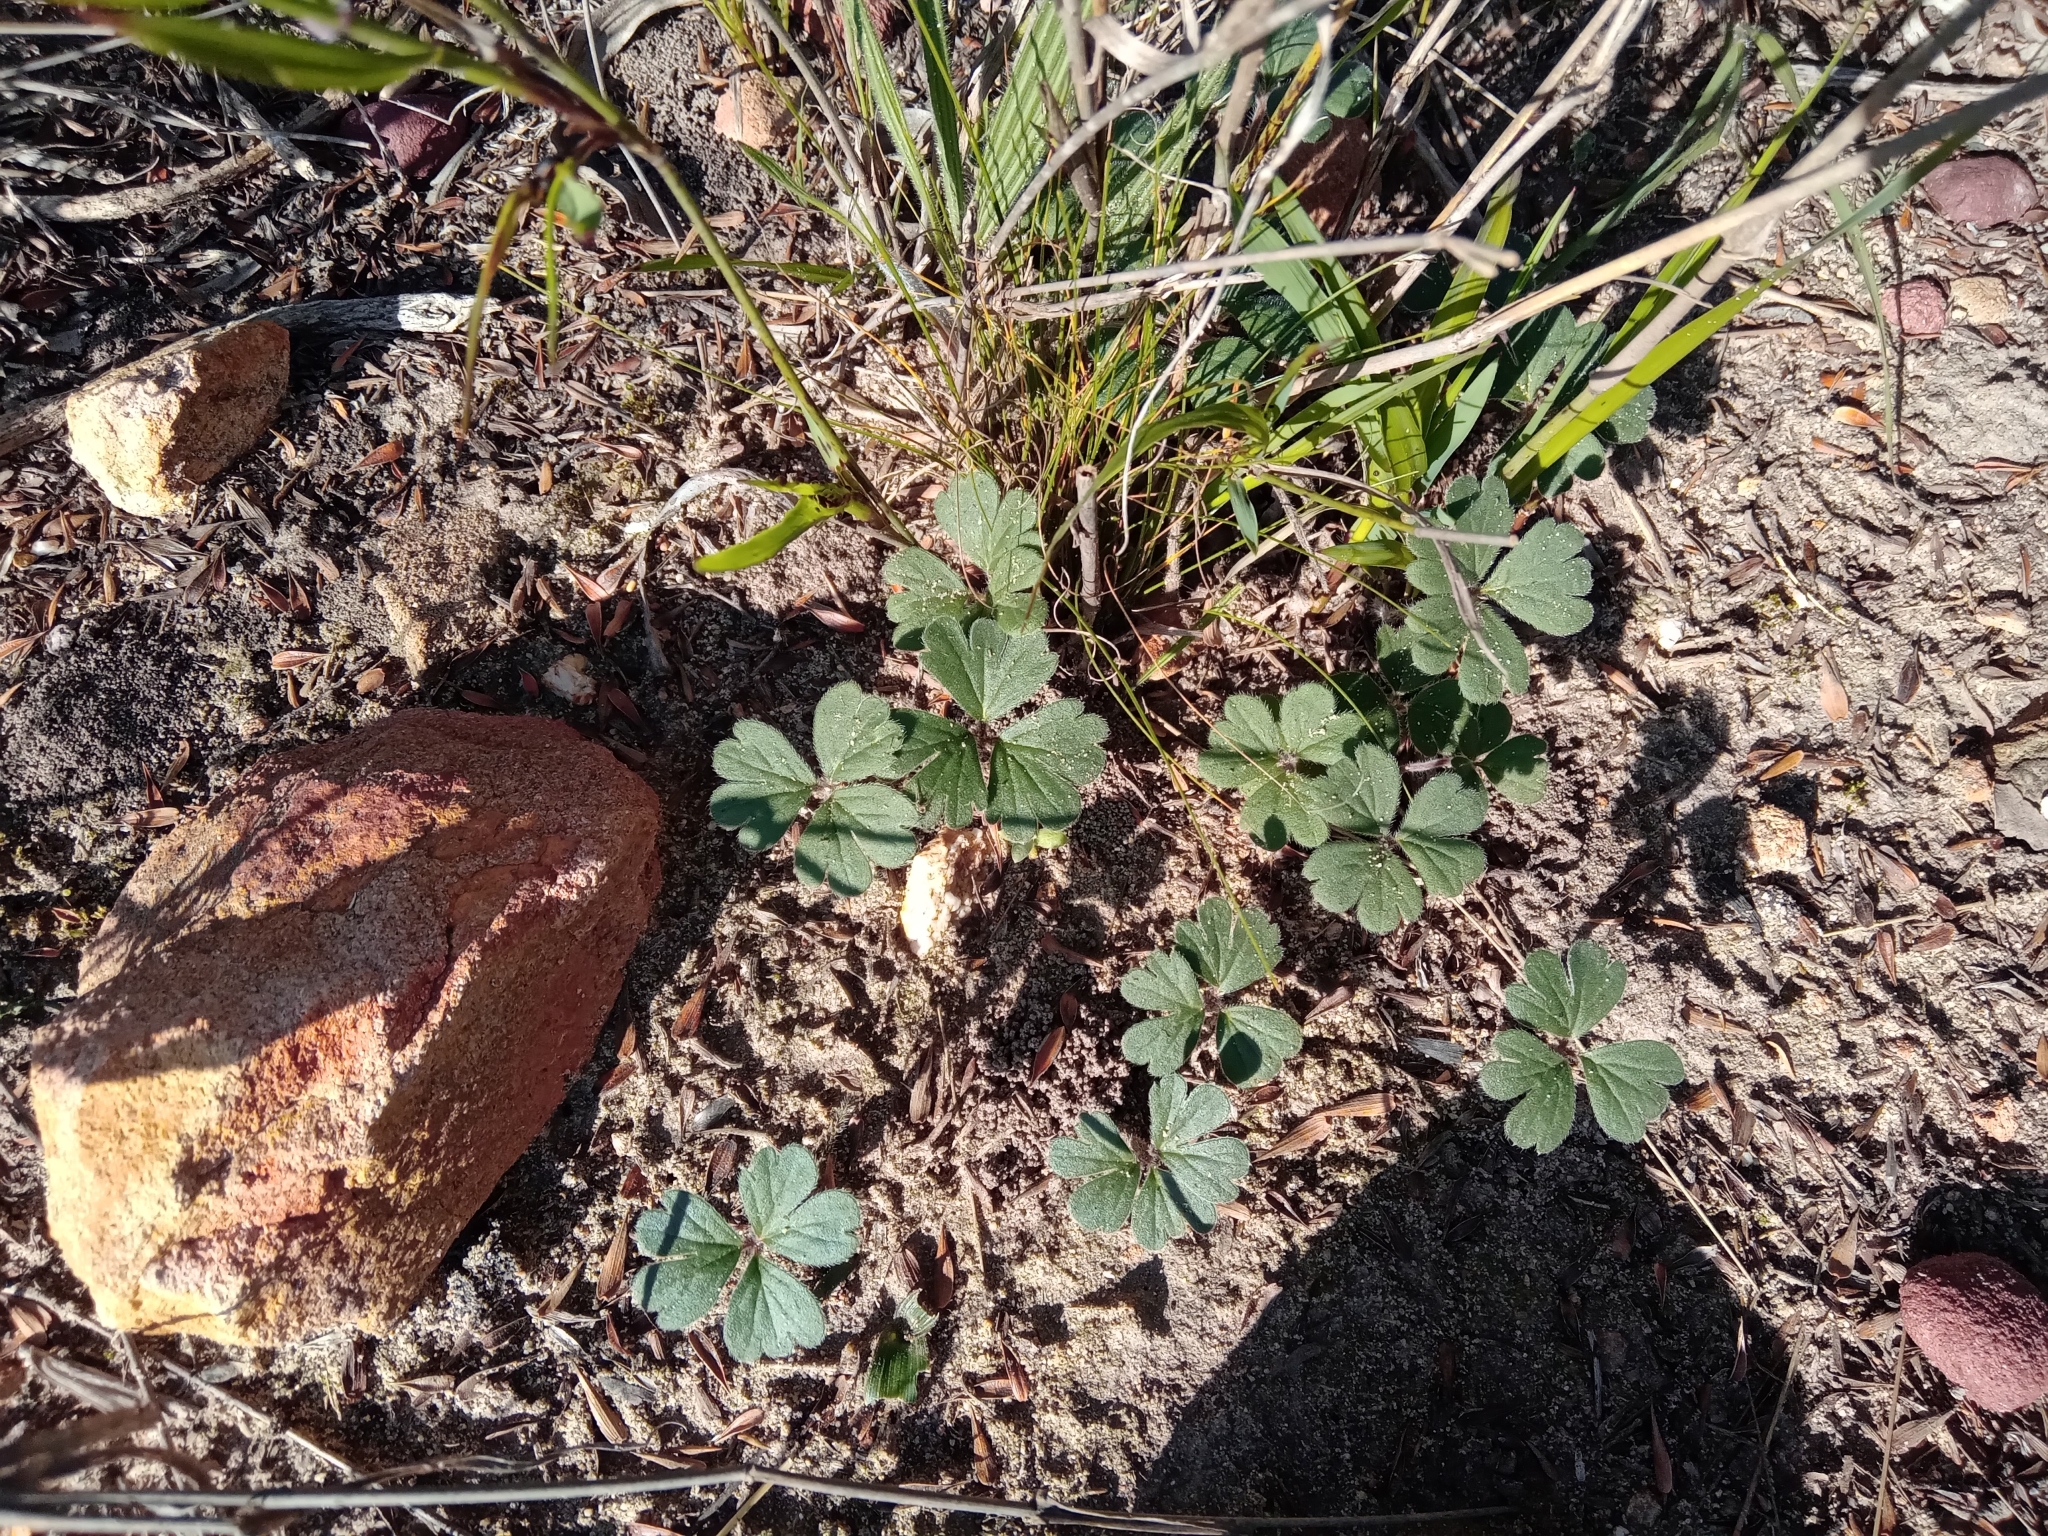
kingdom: Plantae
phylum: Tracheophyta
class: Magnoliopsida
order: Geraniales
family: Geraniaceae
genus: Pelargonium
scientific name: Pelargonium ternifolium
